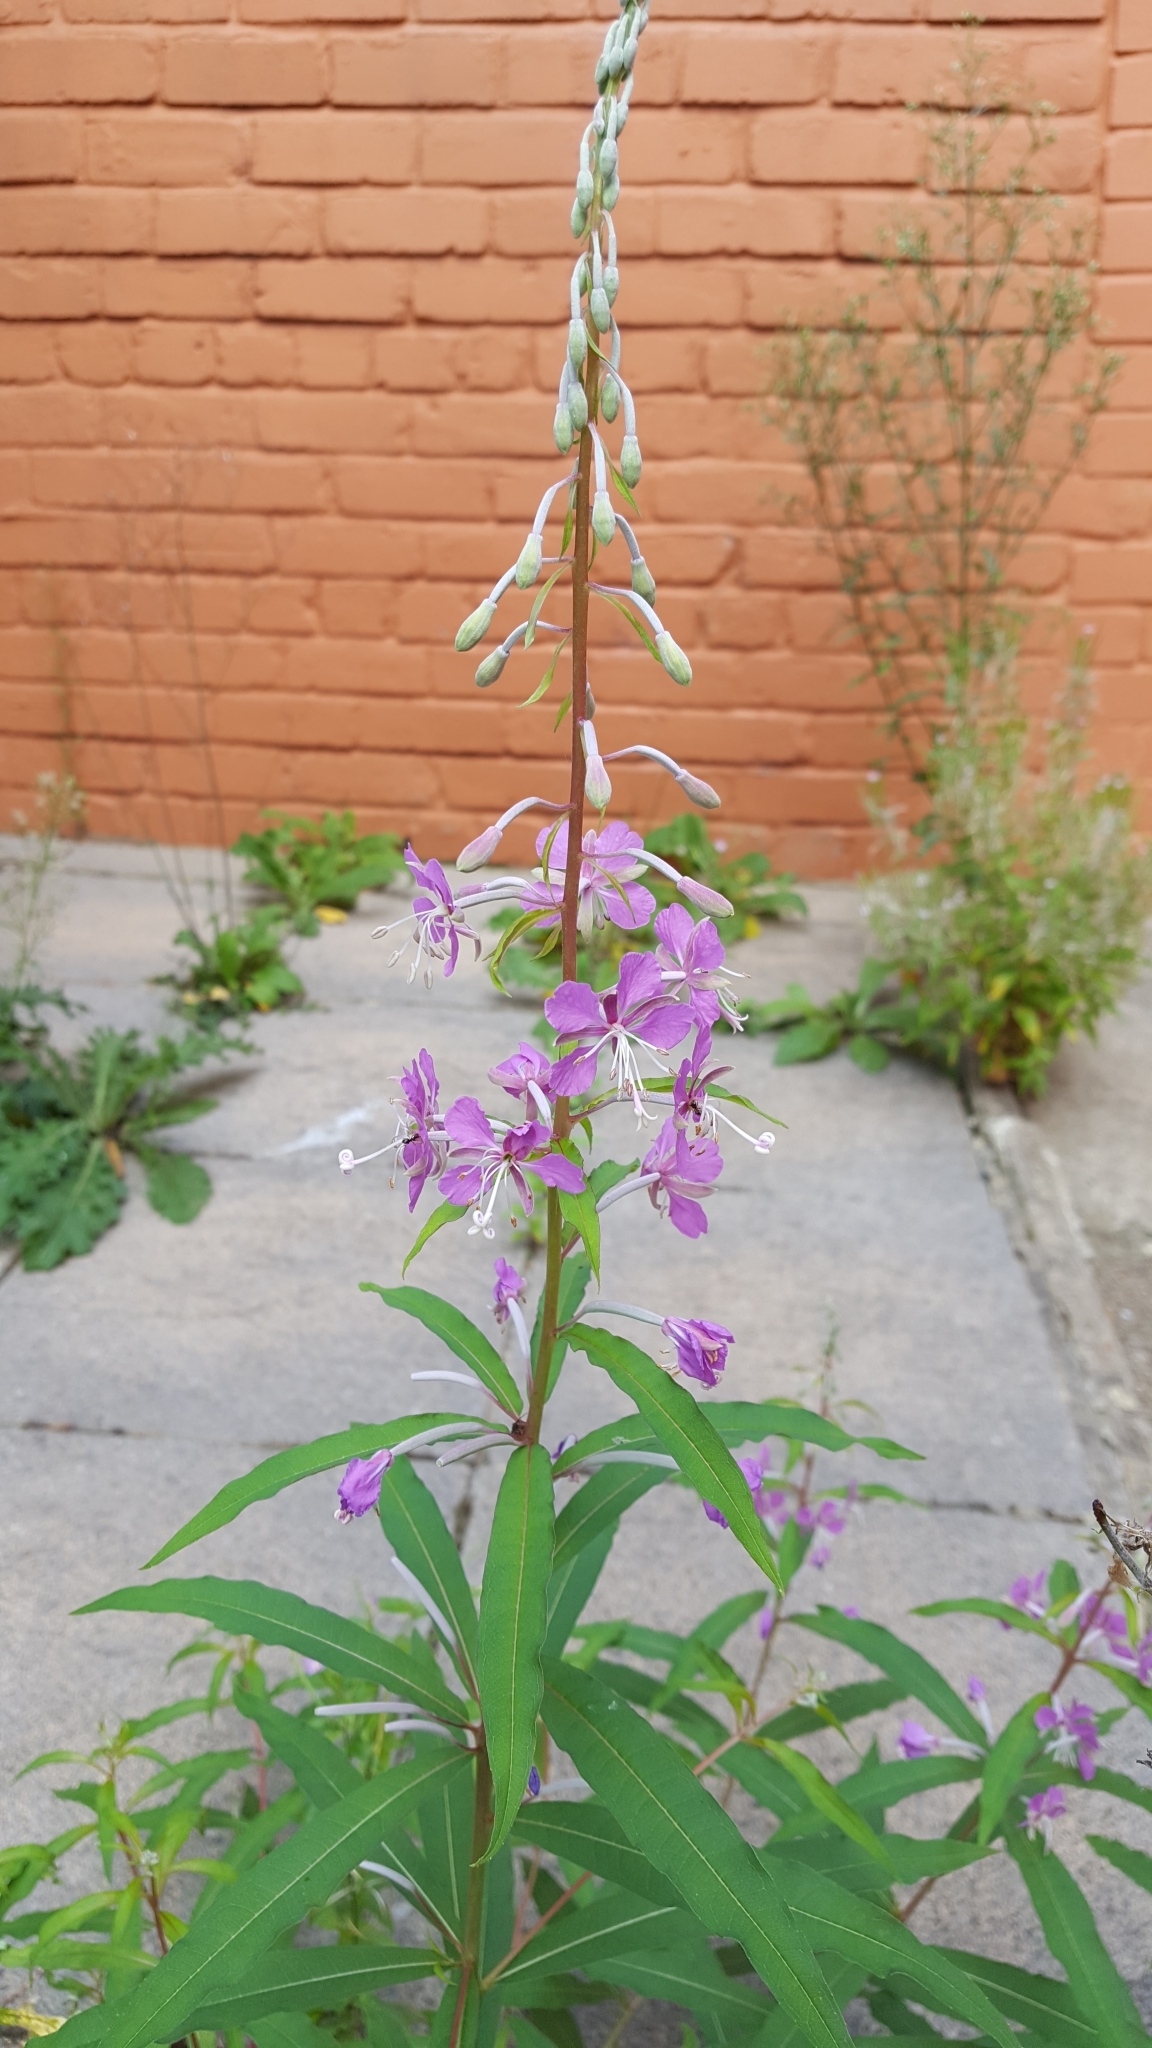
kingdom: Plantae
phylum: Tracheophyta
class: Magnoliopsida
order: Myrtales
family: Onagraceae
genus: Chamaenerion
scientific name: Chamaenerion angustifolium
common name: Fireweed
